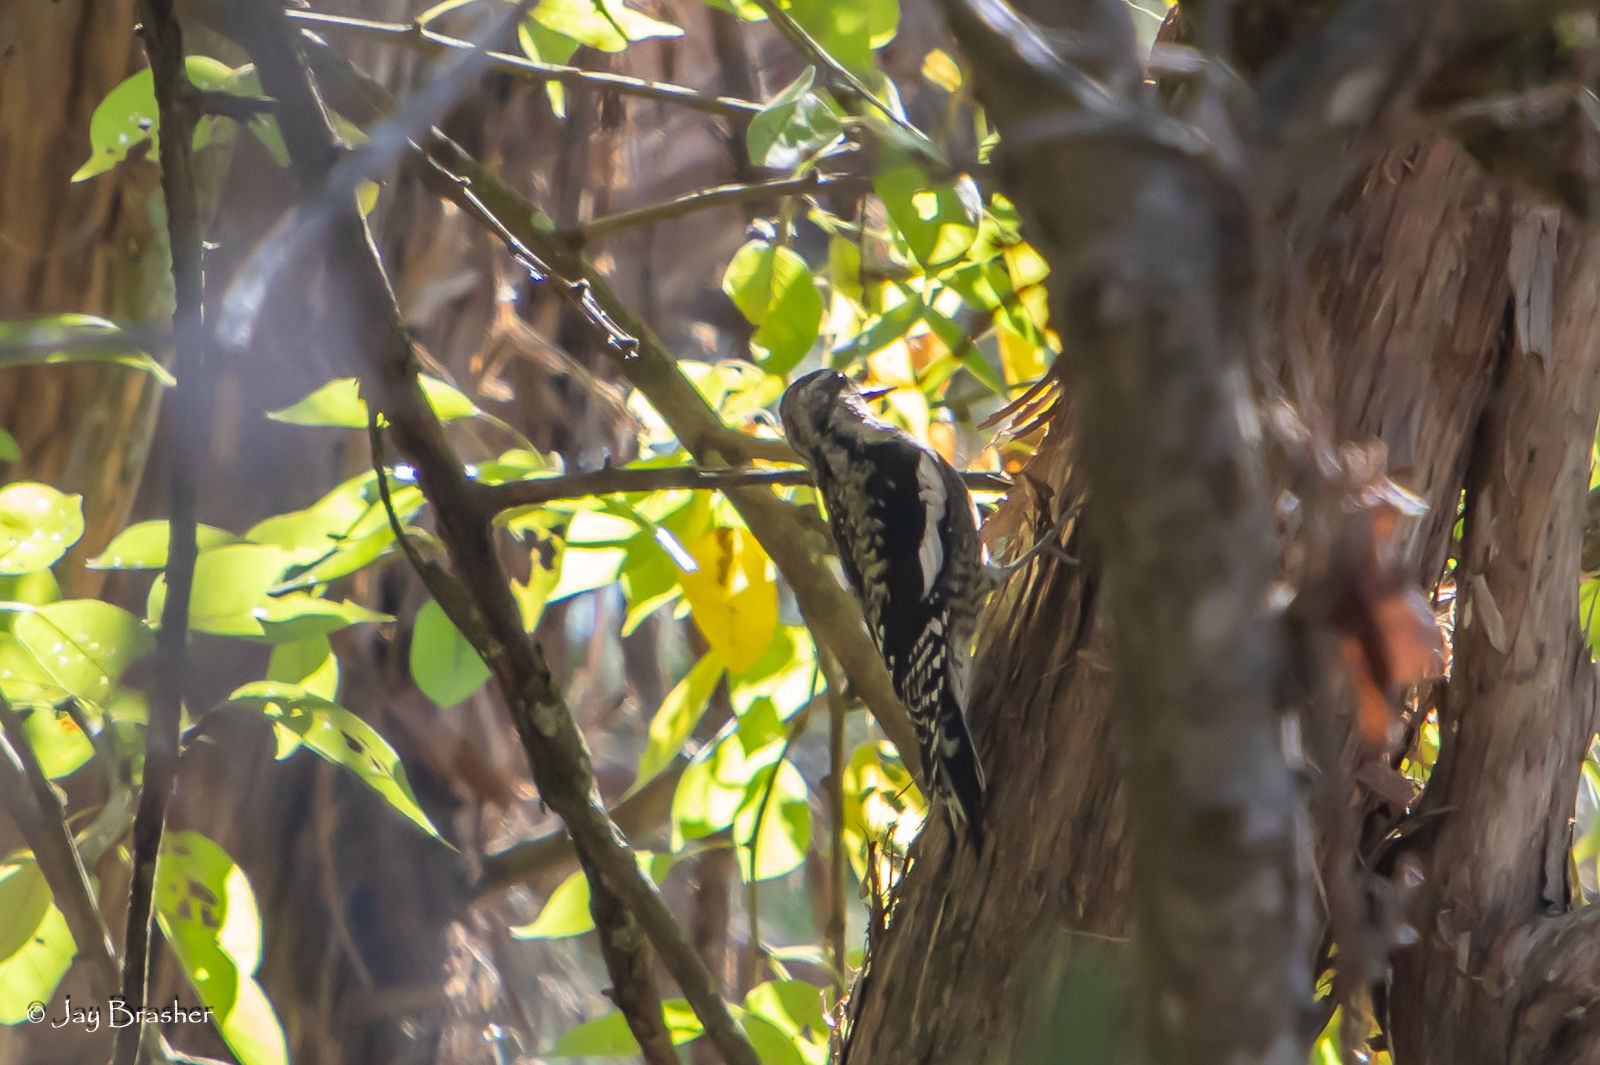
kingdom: Animalia
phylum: Chordata
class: Aves
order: Piciformes
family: Picidae
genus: Sphyrapicus
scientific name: Sphyrapicus varius
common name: Yellow-bellied sapsucker
